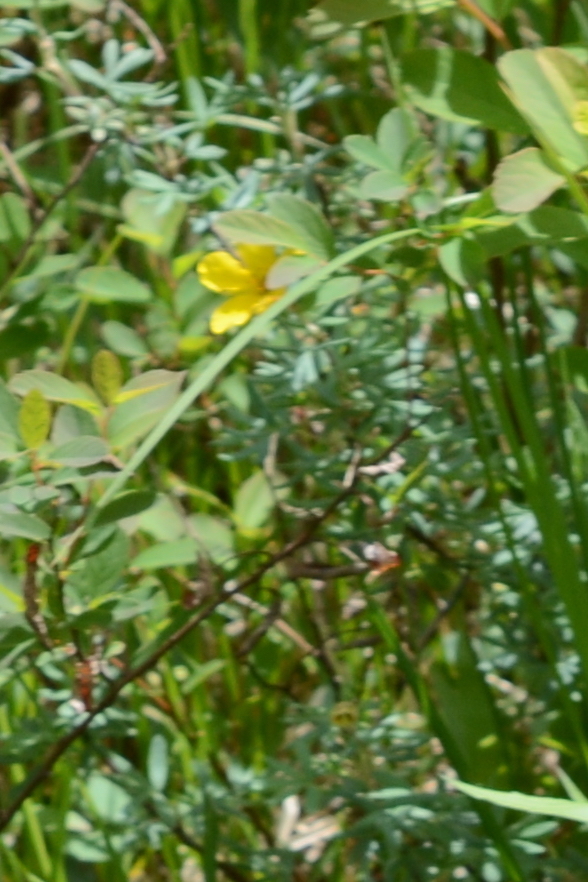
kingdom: Plantae
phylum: Tracheophyta
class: Magnoliopsida
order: Rosales
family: Rosaceae
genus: Dasiphora
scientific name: Dasiphora fruticosa
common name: Shrubby cinquefoil
